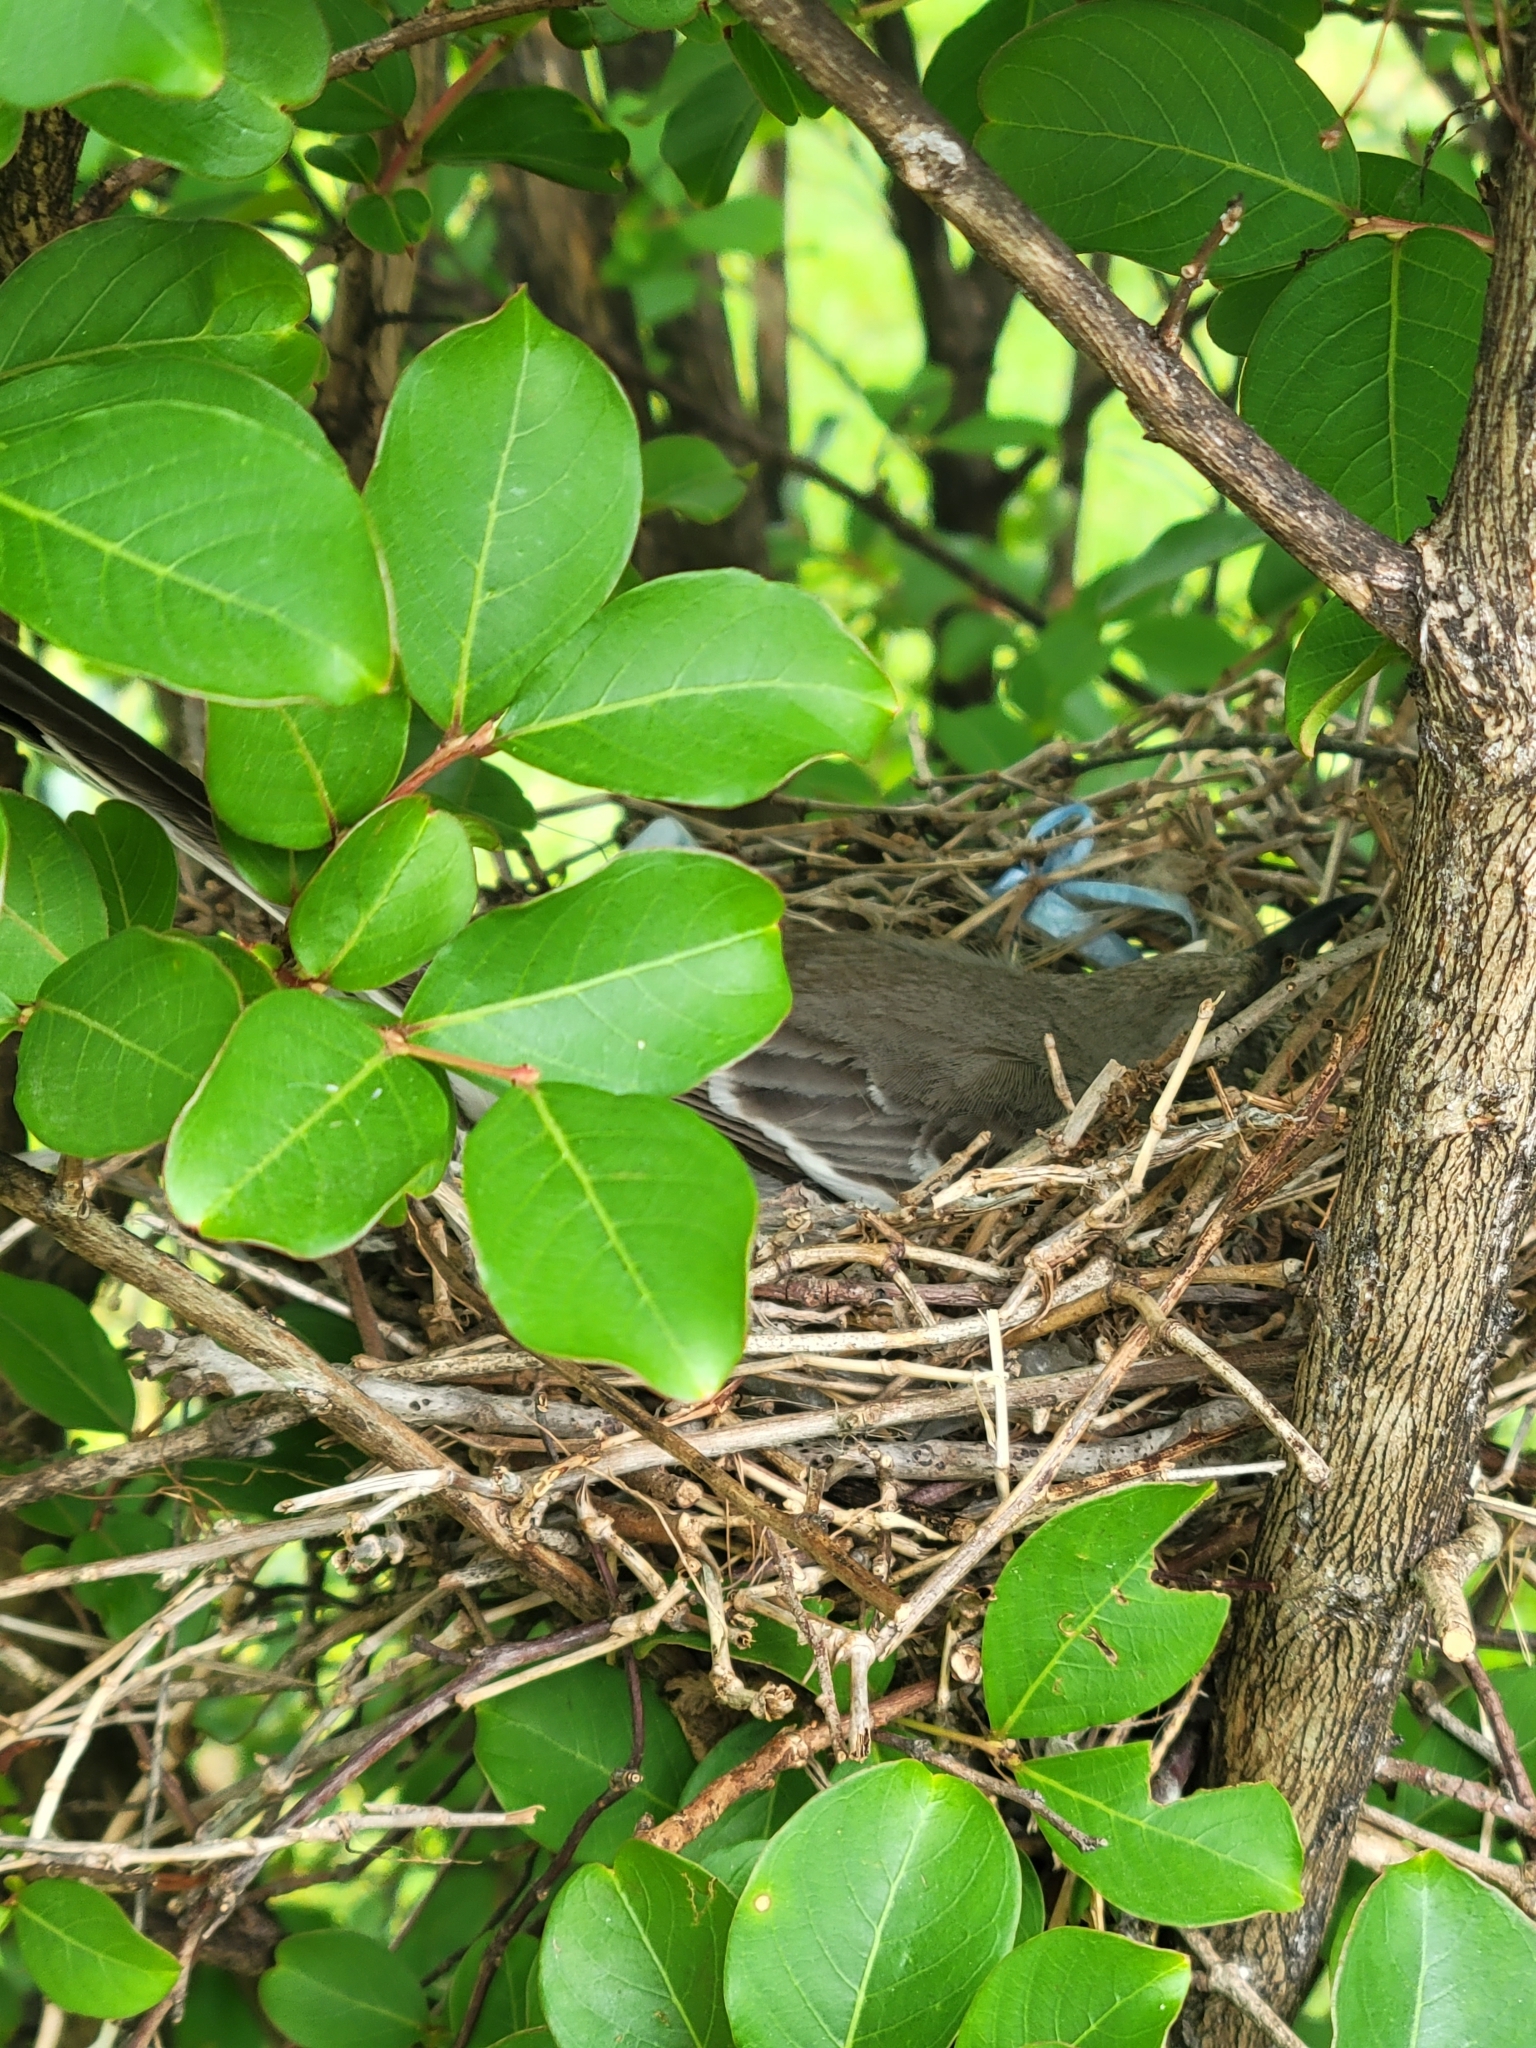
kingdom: Animalia
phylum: Chordata
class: Aves
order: Passeriformes
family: Mimidae
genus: Mimus
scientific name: Mimus polyglottos
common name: Northern mockingbird
